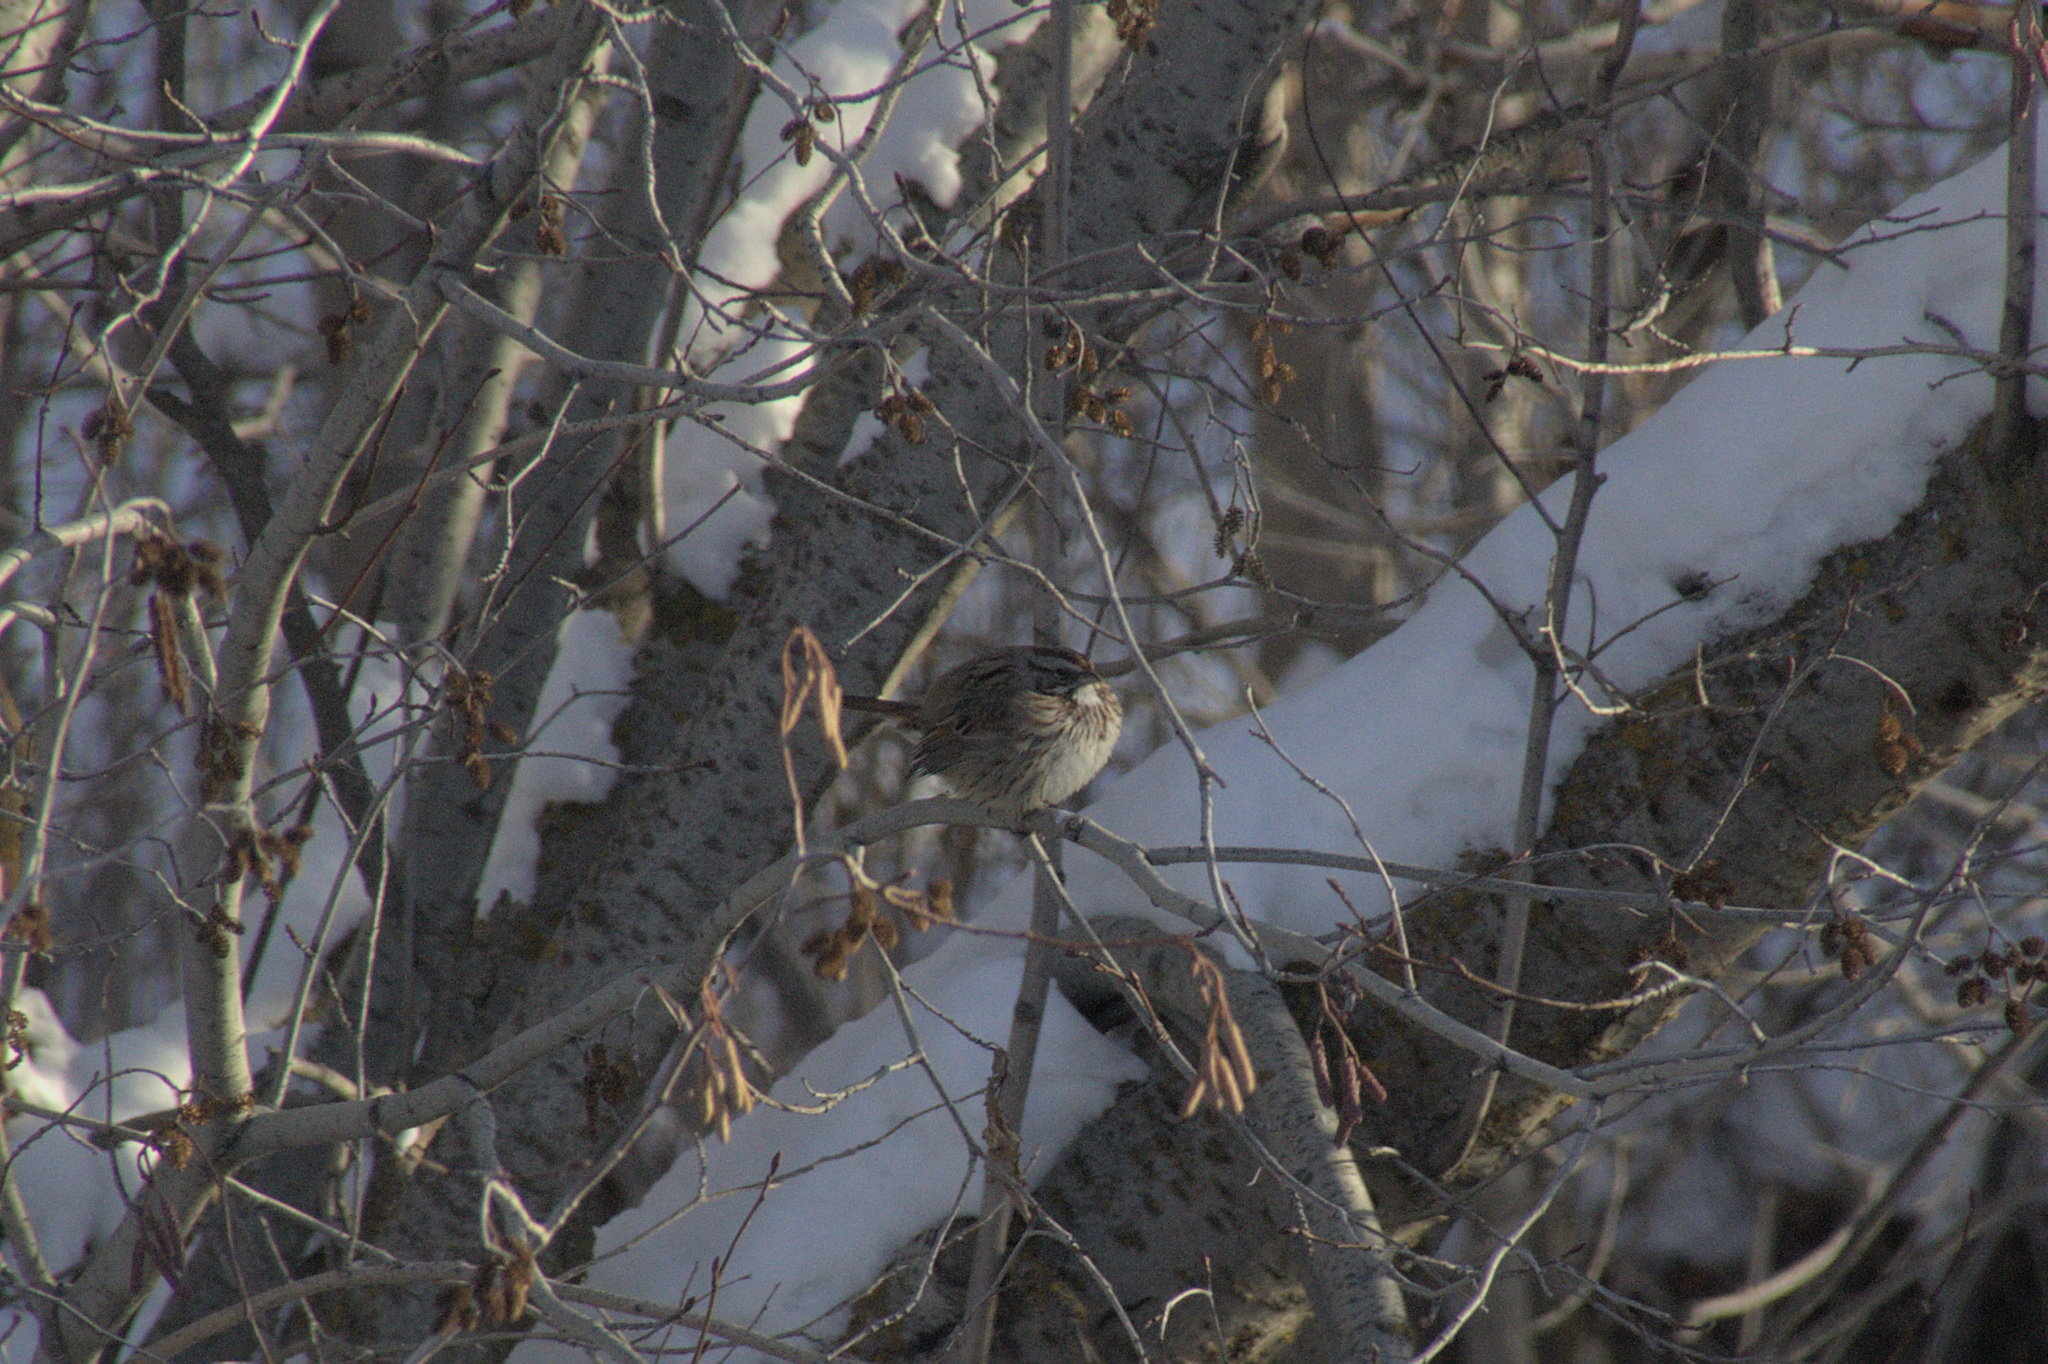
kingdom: Animalia
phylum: Chordata
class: Aves
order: Passeriformes
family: Passerellidae
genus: Melospiza
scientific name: Melospiza melodia
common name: Song sparrow
